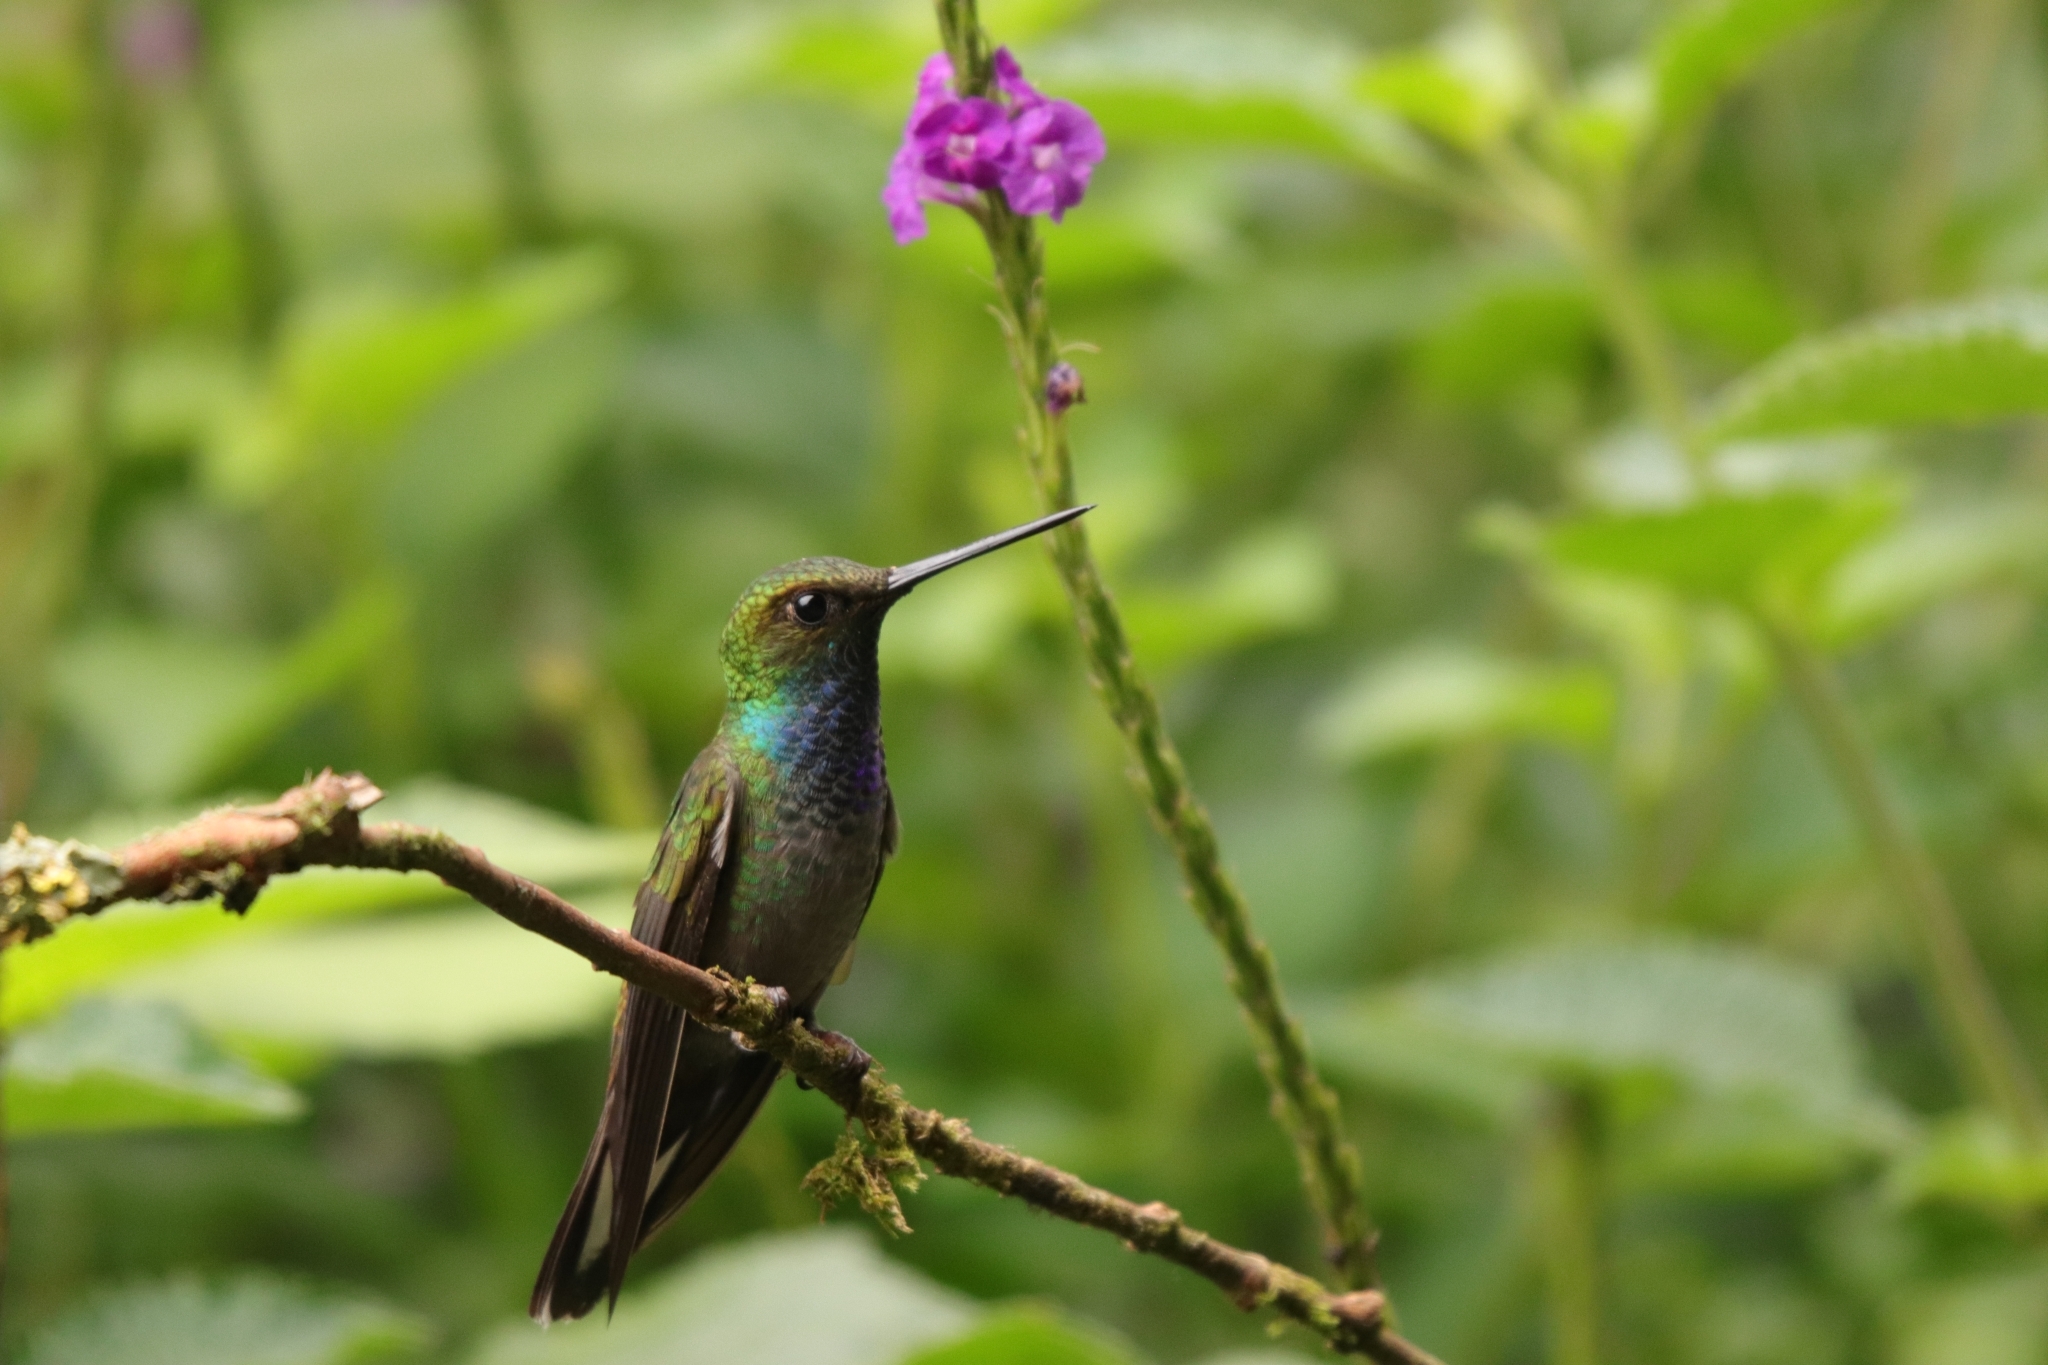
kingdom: Animalia
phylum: Chordata
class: Aves
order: Apodiformes
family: Trochilidae
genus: Urochroa
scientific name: Urochroa leucura
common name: Green-backed hillstar
